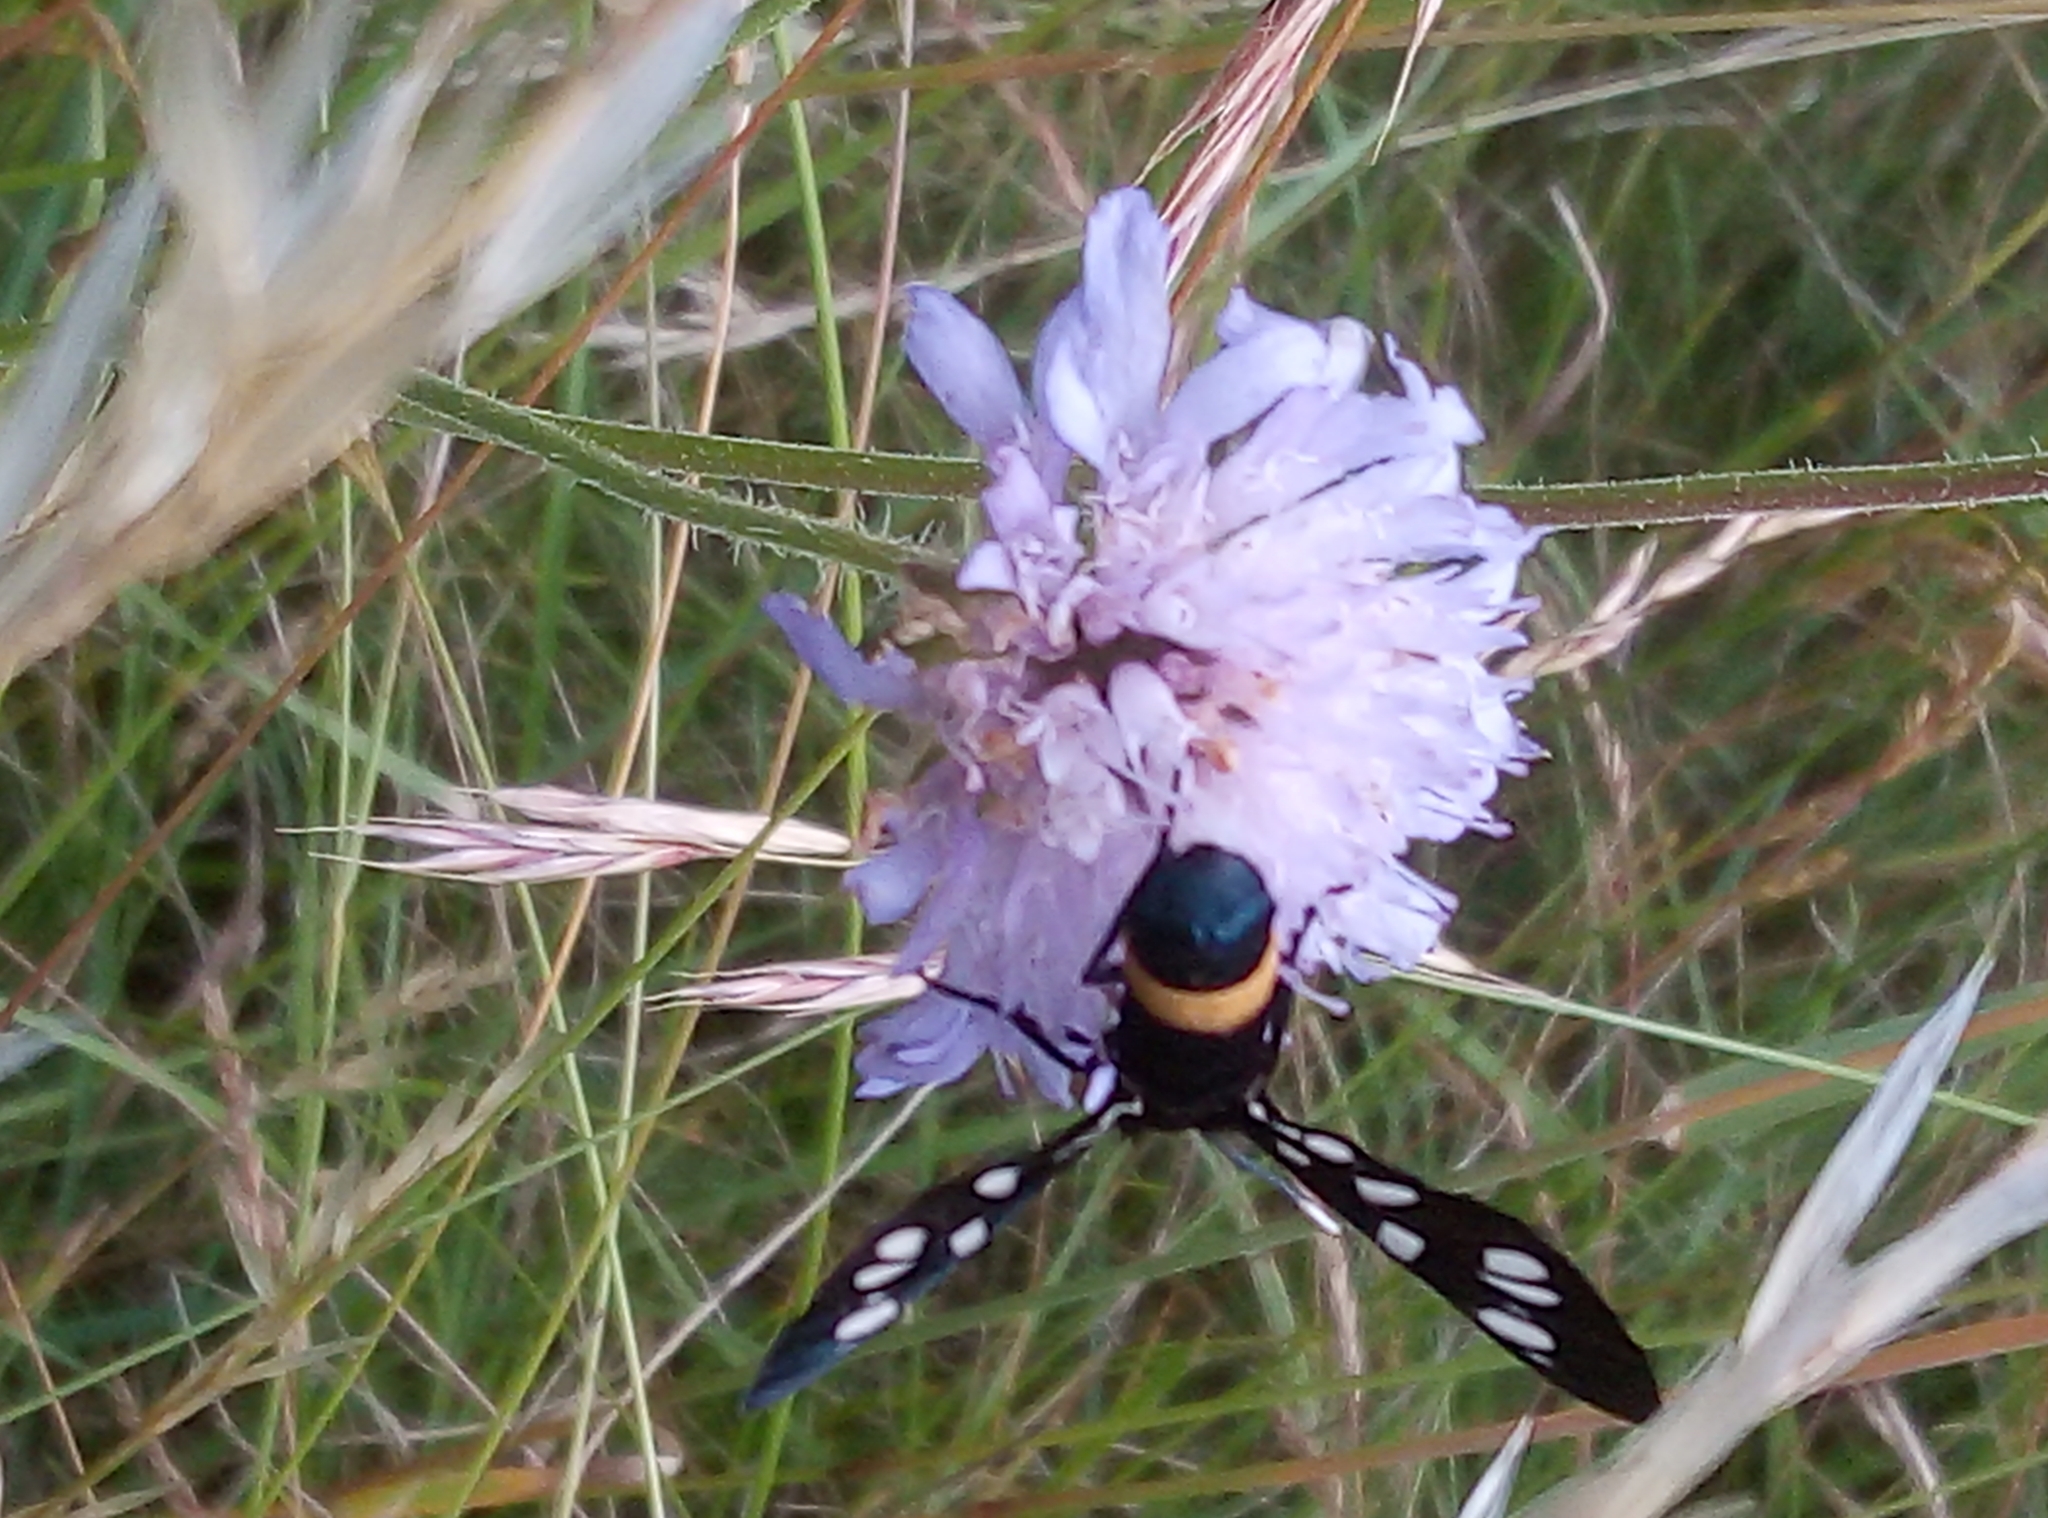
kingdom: Animalia
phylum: Arthropoda
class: Insecta
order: Lepidoptera
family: Erebidae
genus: Amata
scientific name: Amata phegea
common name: Nine-spotted
